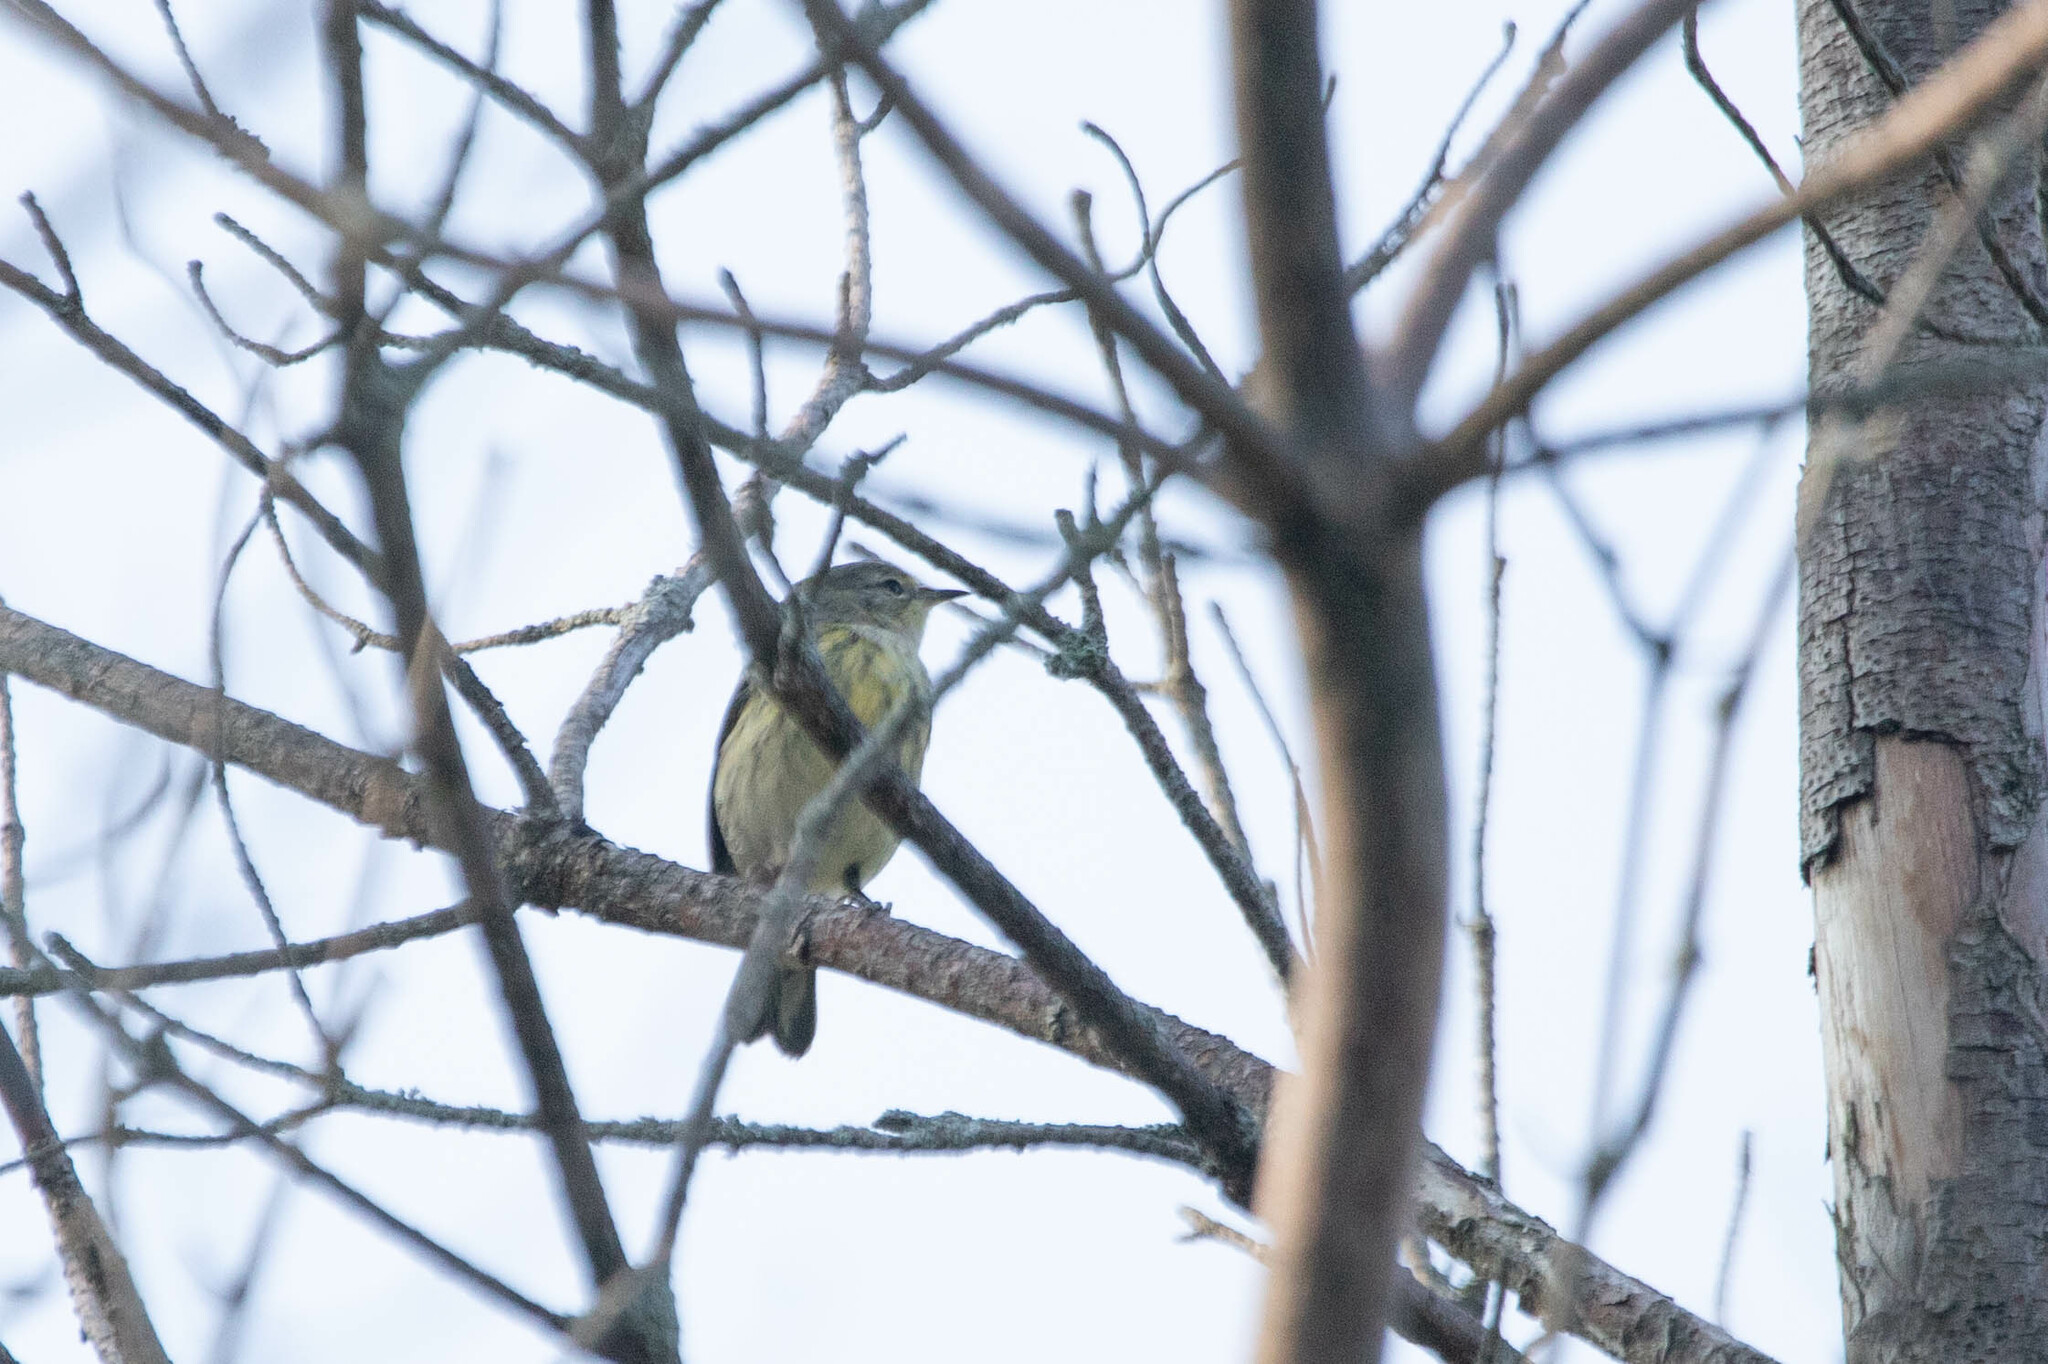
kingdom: Animalia
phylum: Chordata
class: Aves
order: Passeriformes
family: Parulidae
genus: Setophaga
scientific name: Setophaga tigrina
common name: Cape may warbler
